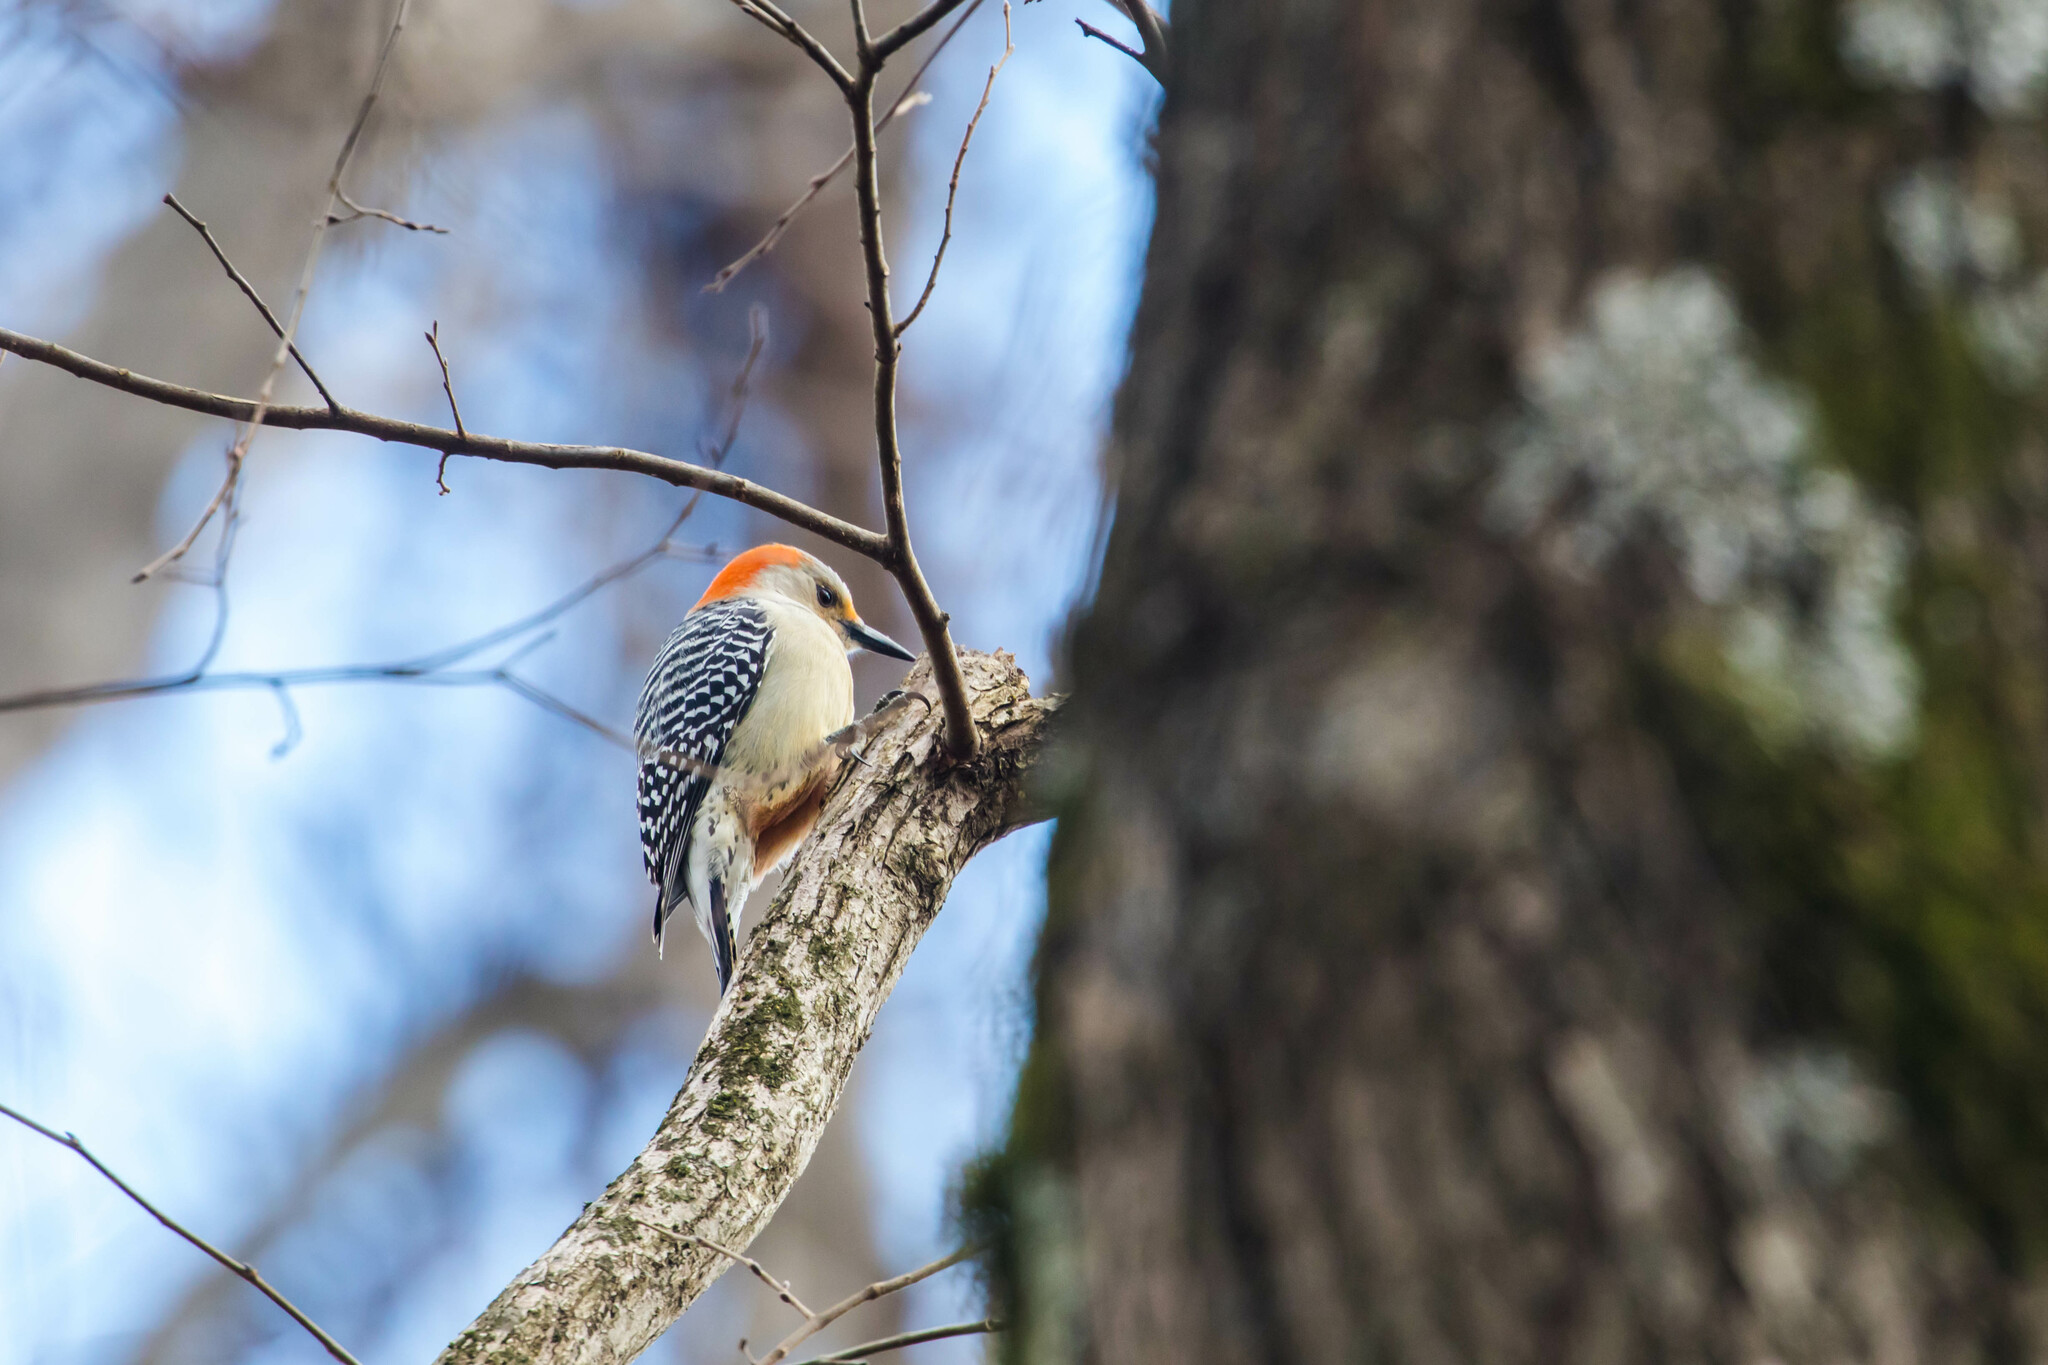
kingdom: Animalia
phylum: Chordata
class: Aves
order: Piciformes
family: Picidae
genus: Melanerpes
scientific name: Melanerpes carolinus
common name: Red-bellied woodpecker
